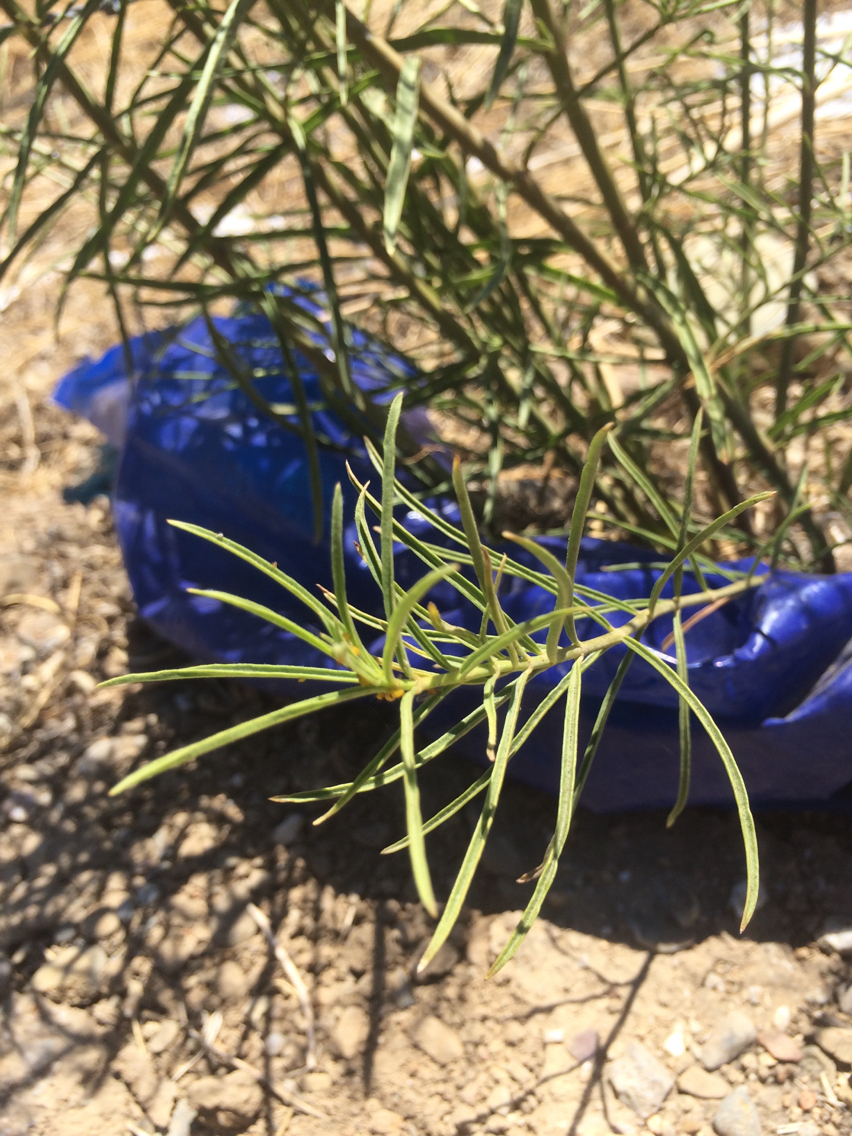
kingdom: Animalia
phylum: Arthropoda
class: Insecta
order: Hemiptera
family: Aphididae
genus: Aphis
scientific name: Aphis nerii
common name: Oleander aphid
